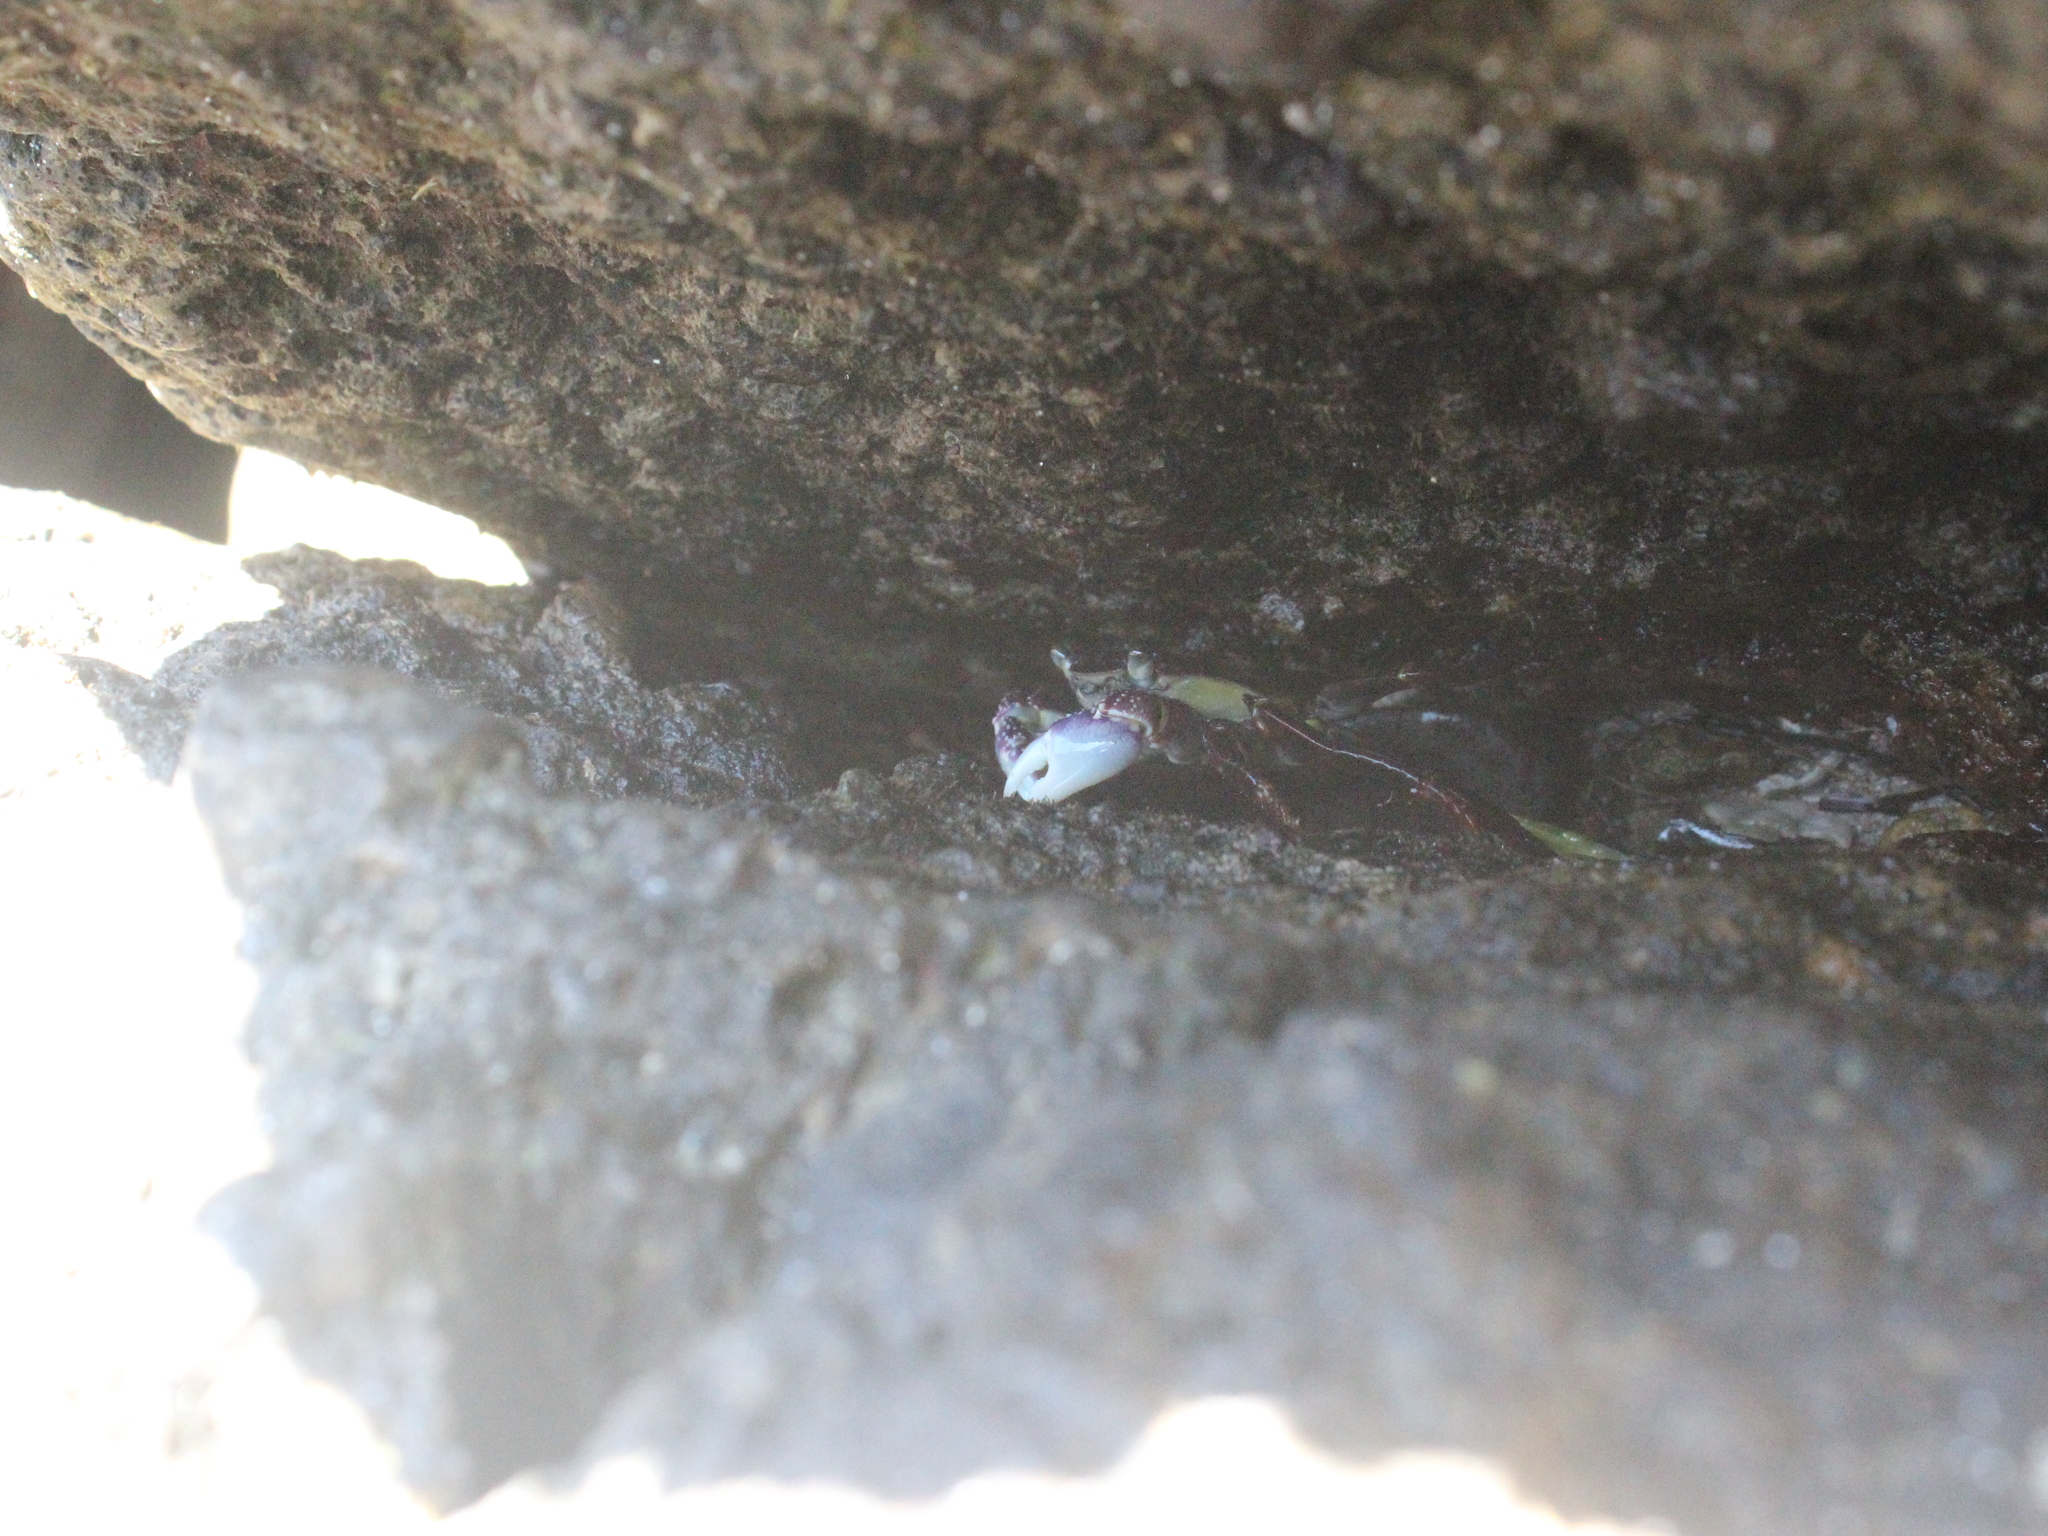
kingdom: Animalia
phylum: Arthropoda
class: Malacostraca
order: Decapoda
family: Grapsidae
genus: Leptograpsus
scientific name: Leptograpsus variegatus
